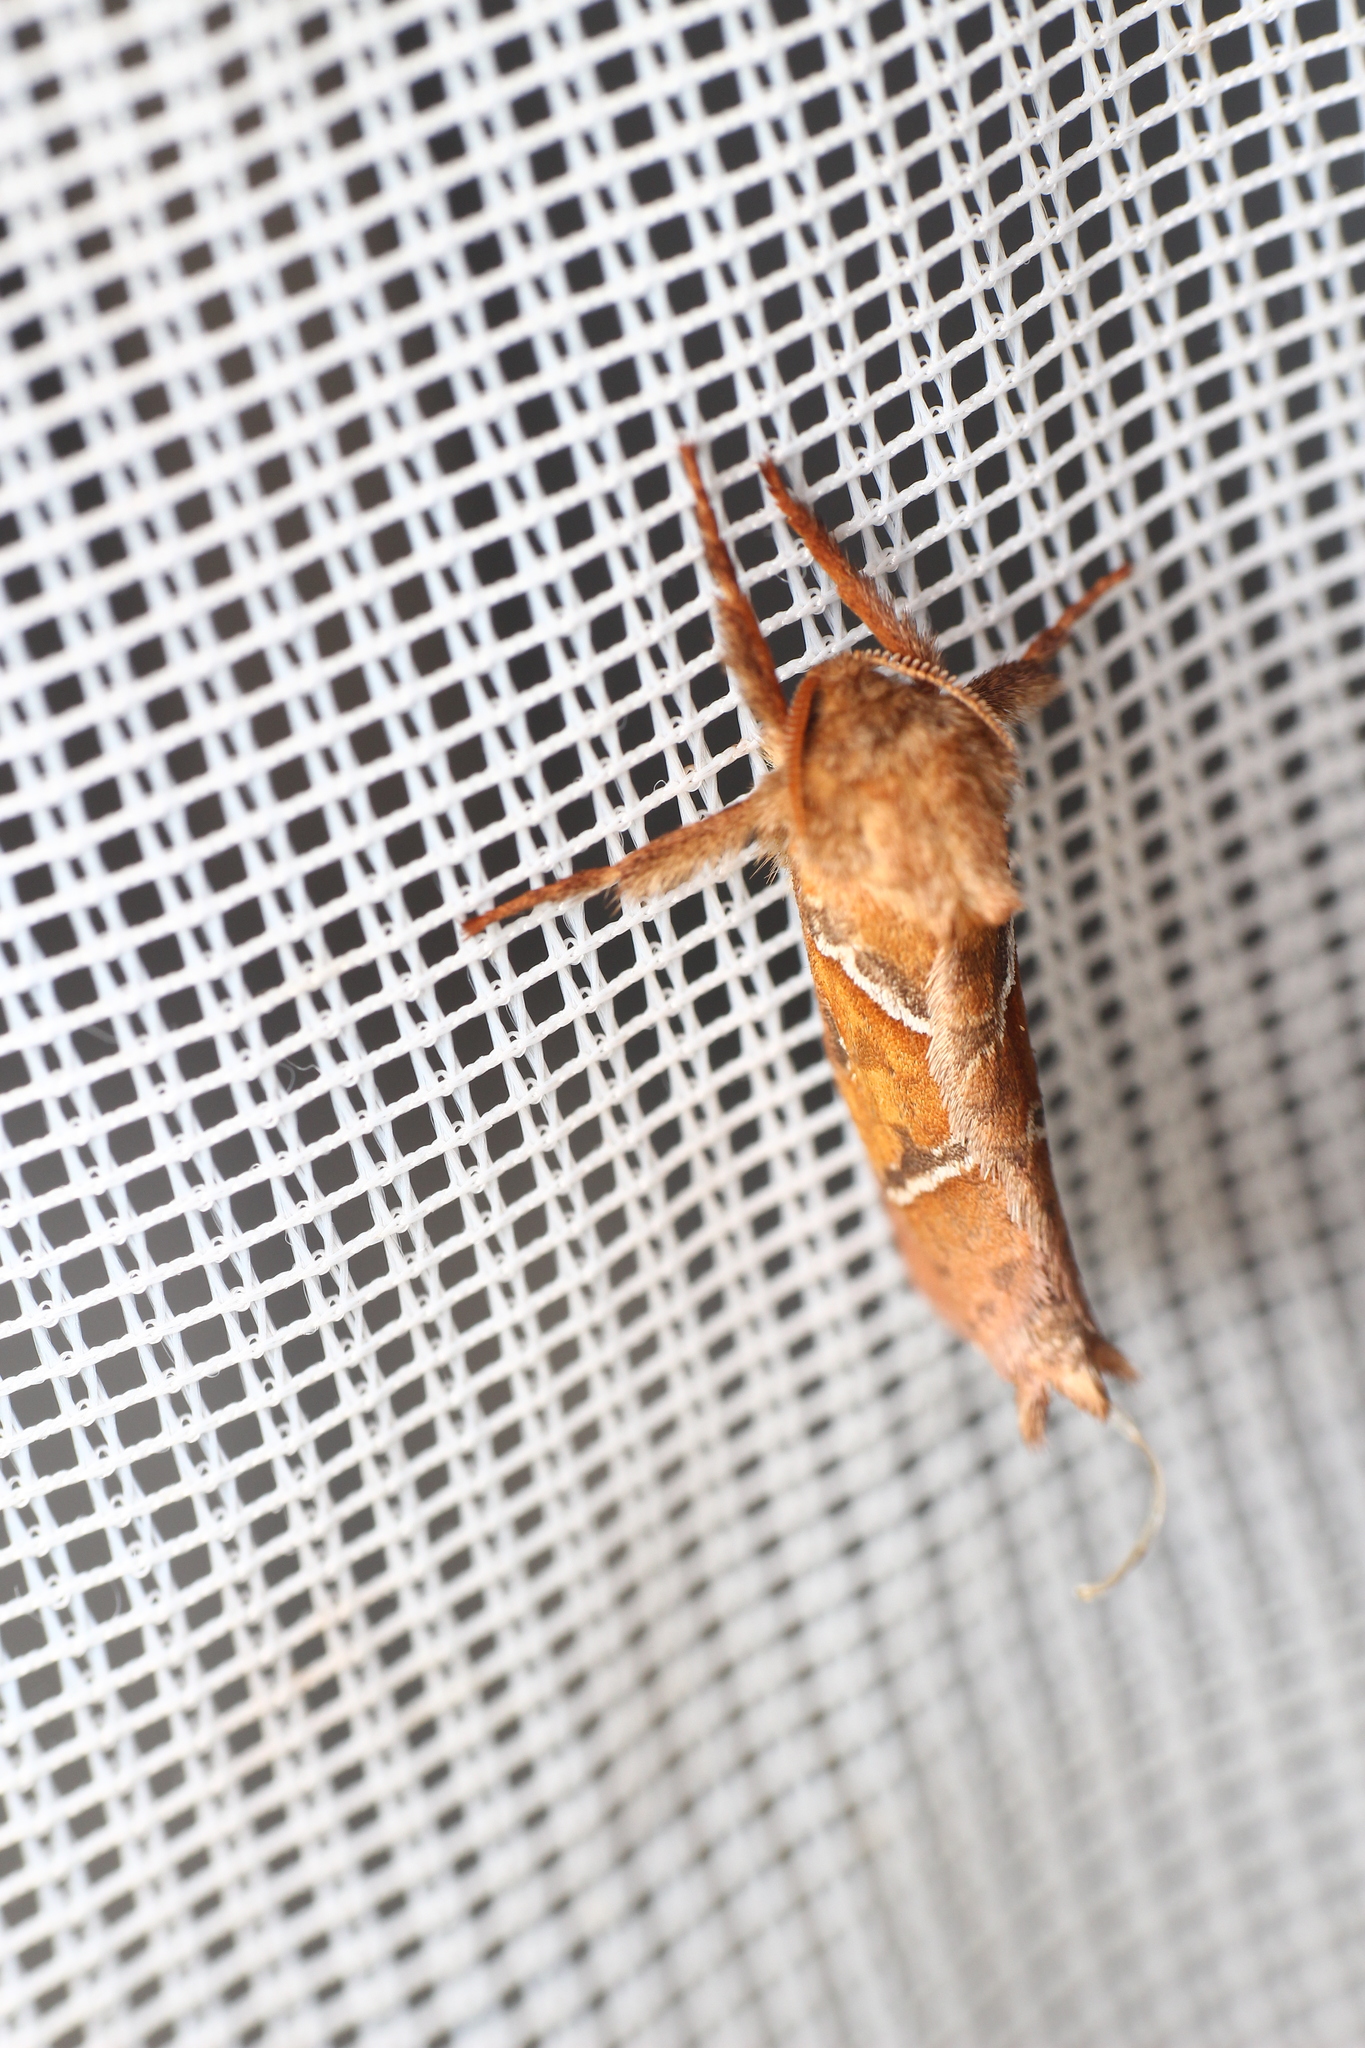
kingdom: Animalia
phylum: Arthropoda
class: Insecta
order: Lepidoptera
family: Hepialidae
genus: Triodia
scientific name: Triodia sylvina
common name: Orange swift
